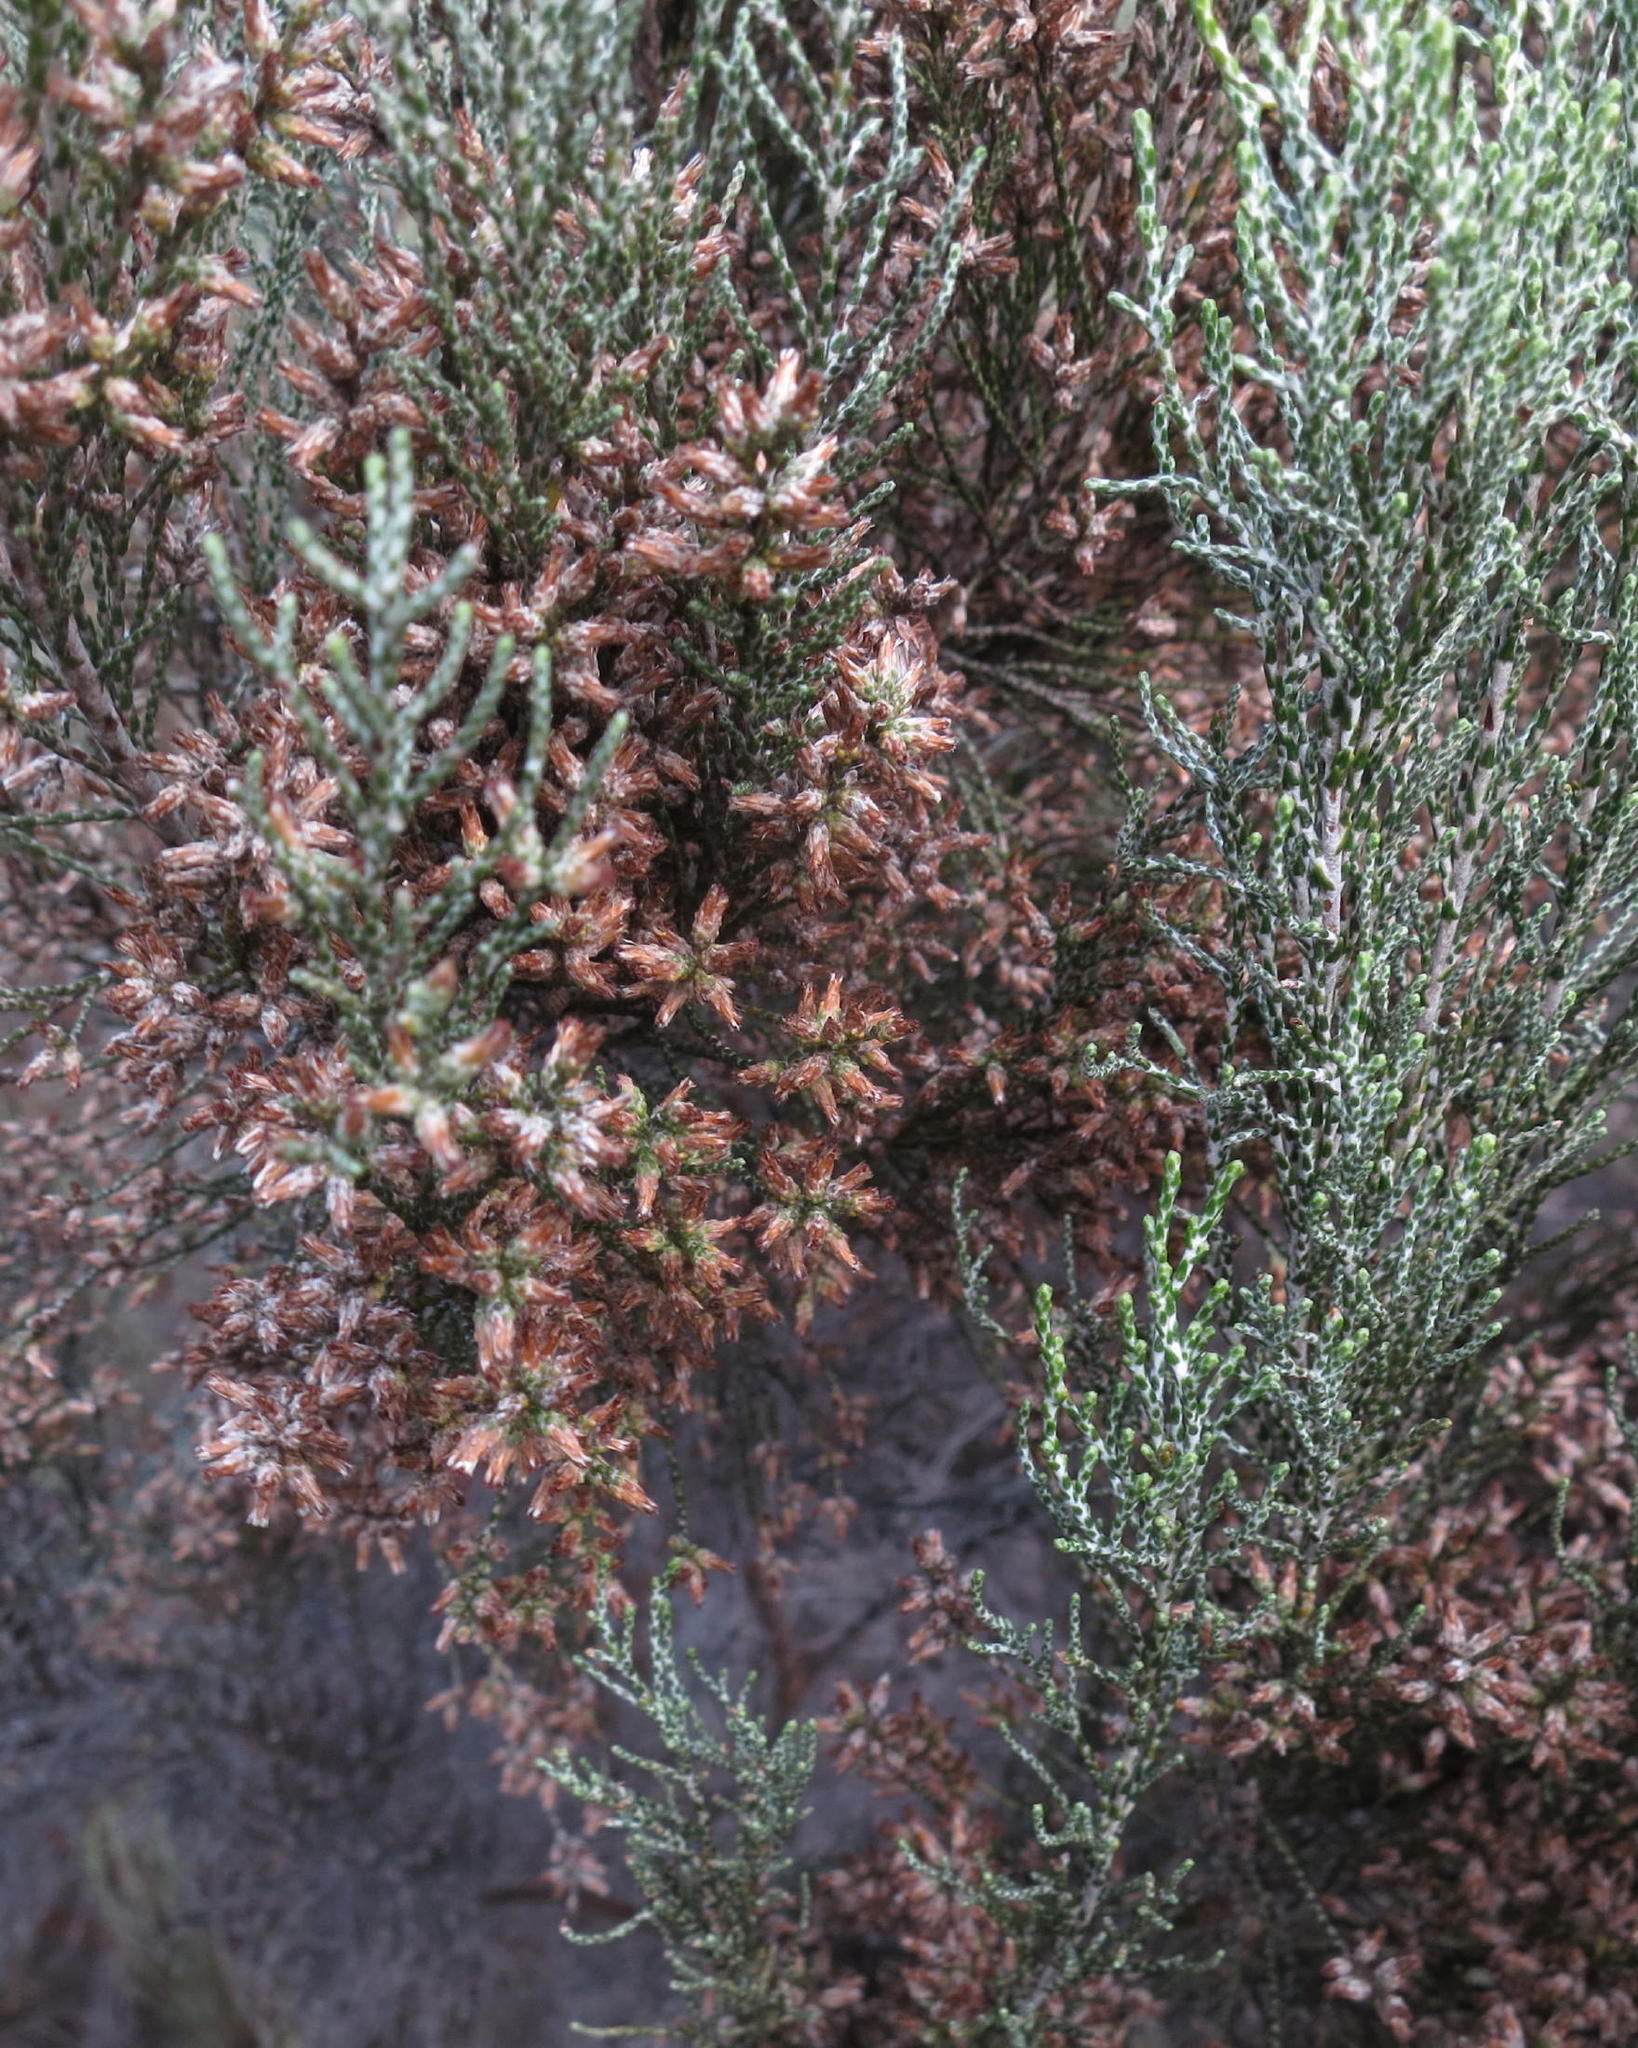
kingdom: Plantae
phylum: Tracheophyta
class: Magnoliopsida
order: Asterales
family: Asteraceae
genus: Dicerothamnus
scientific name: Dicerothamnus rhinocerotis
